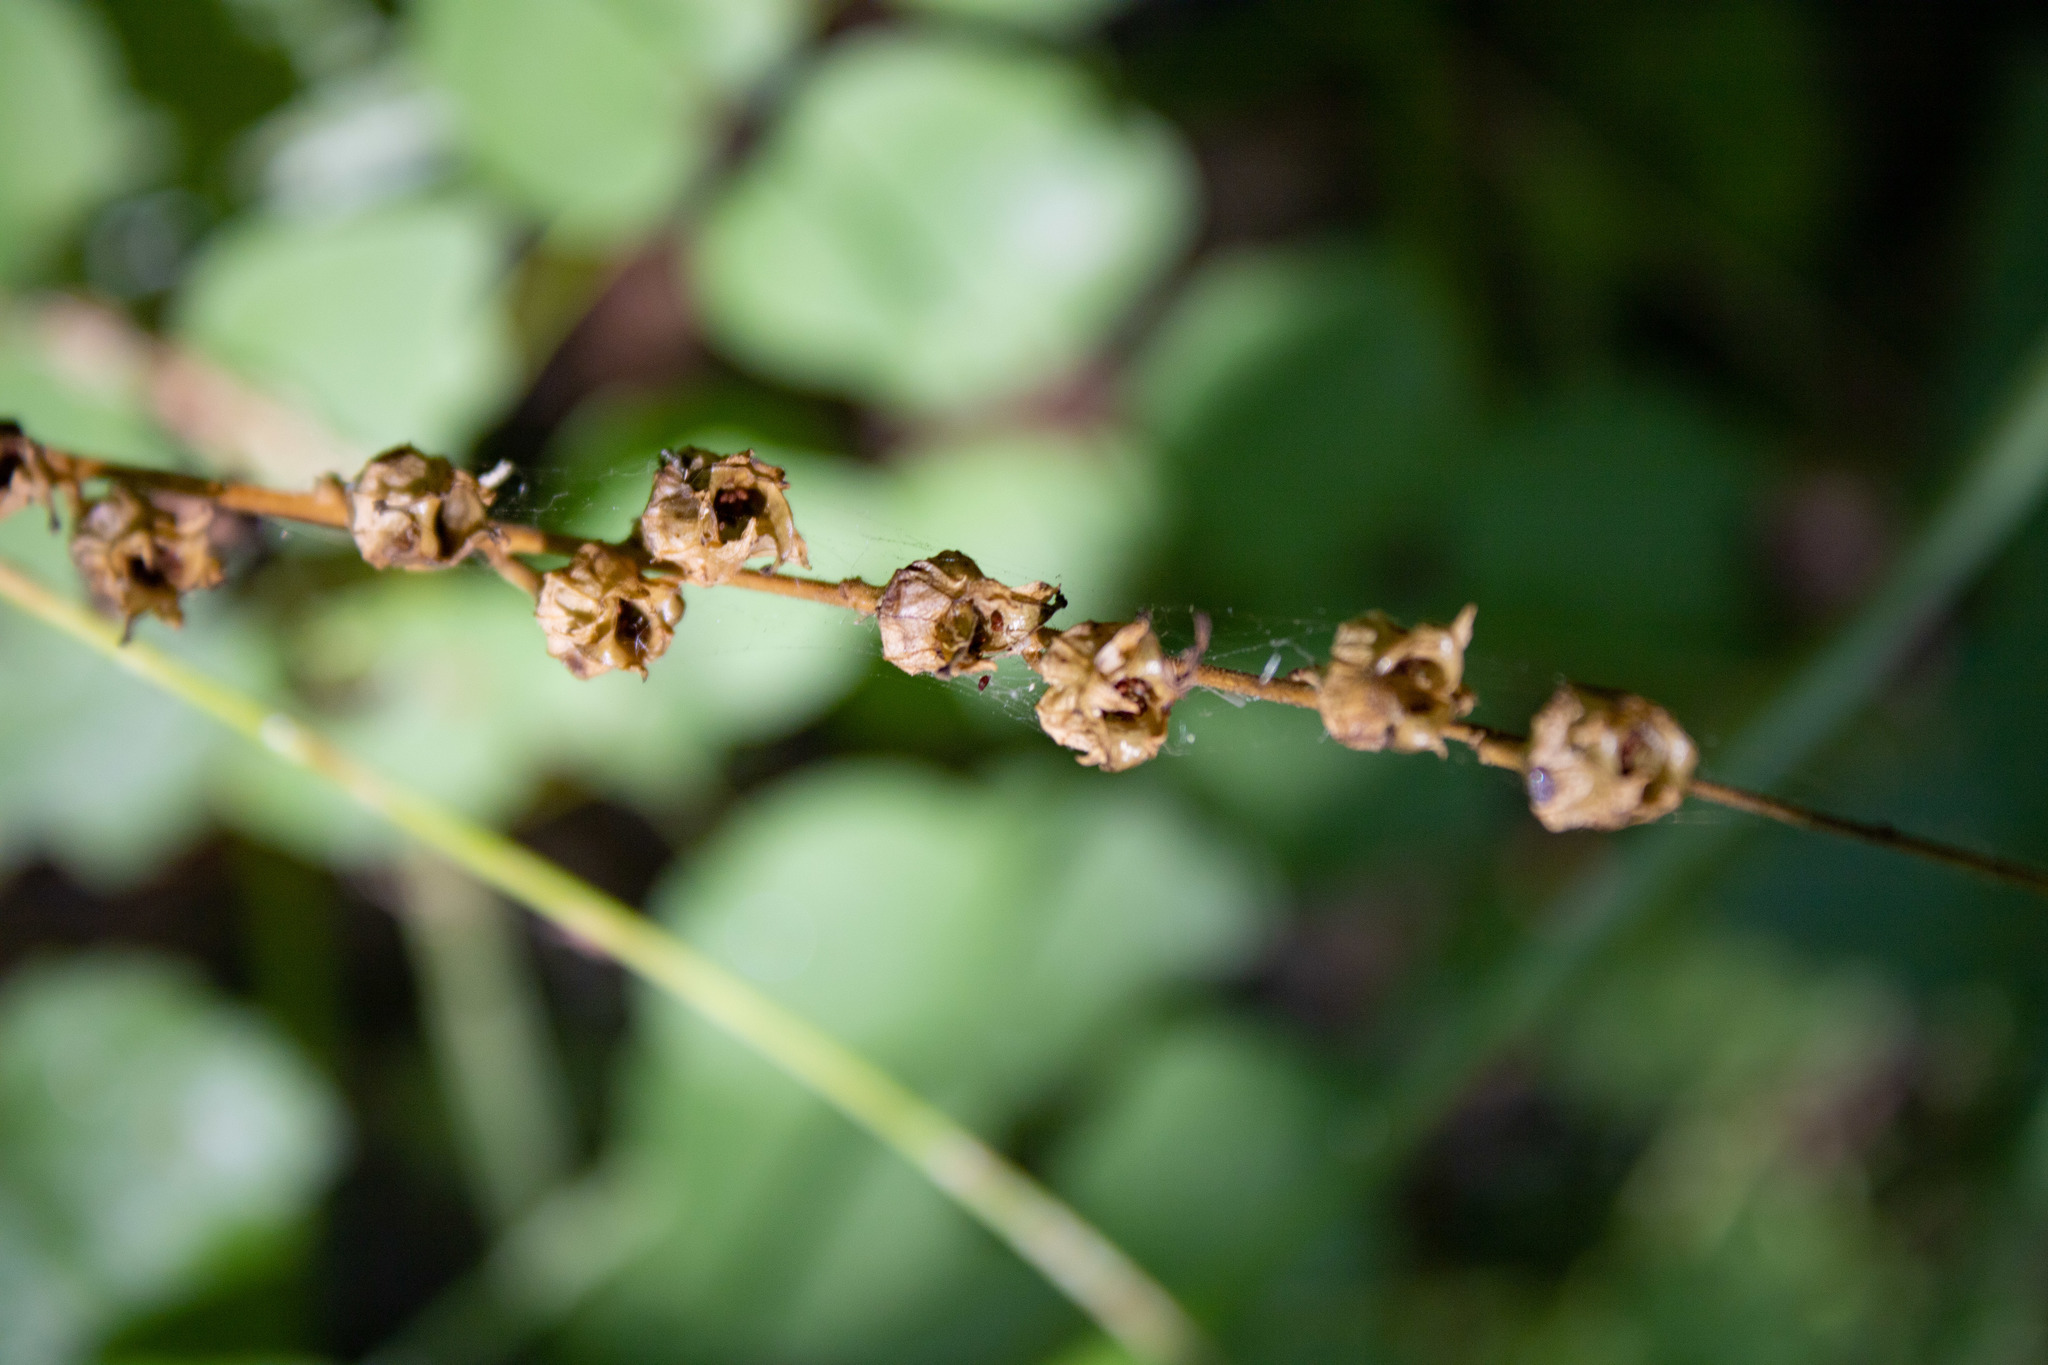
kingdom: Plantae
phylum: Tracheophyta
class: Magnoliopsida
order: Saxifragales
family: Saxifragaceae
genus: Tellima
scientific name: Tellima grandiflora
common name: Fringecups
